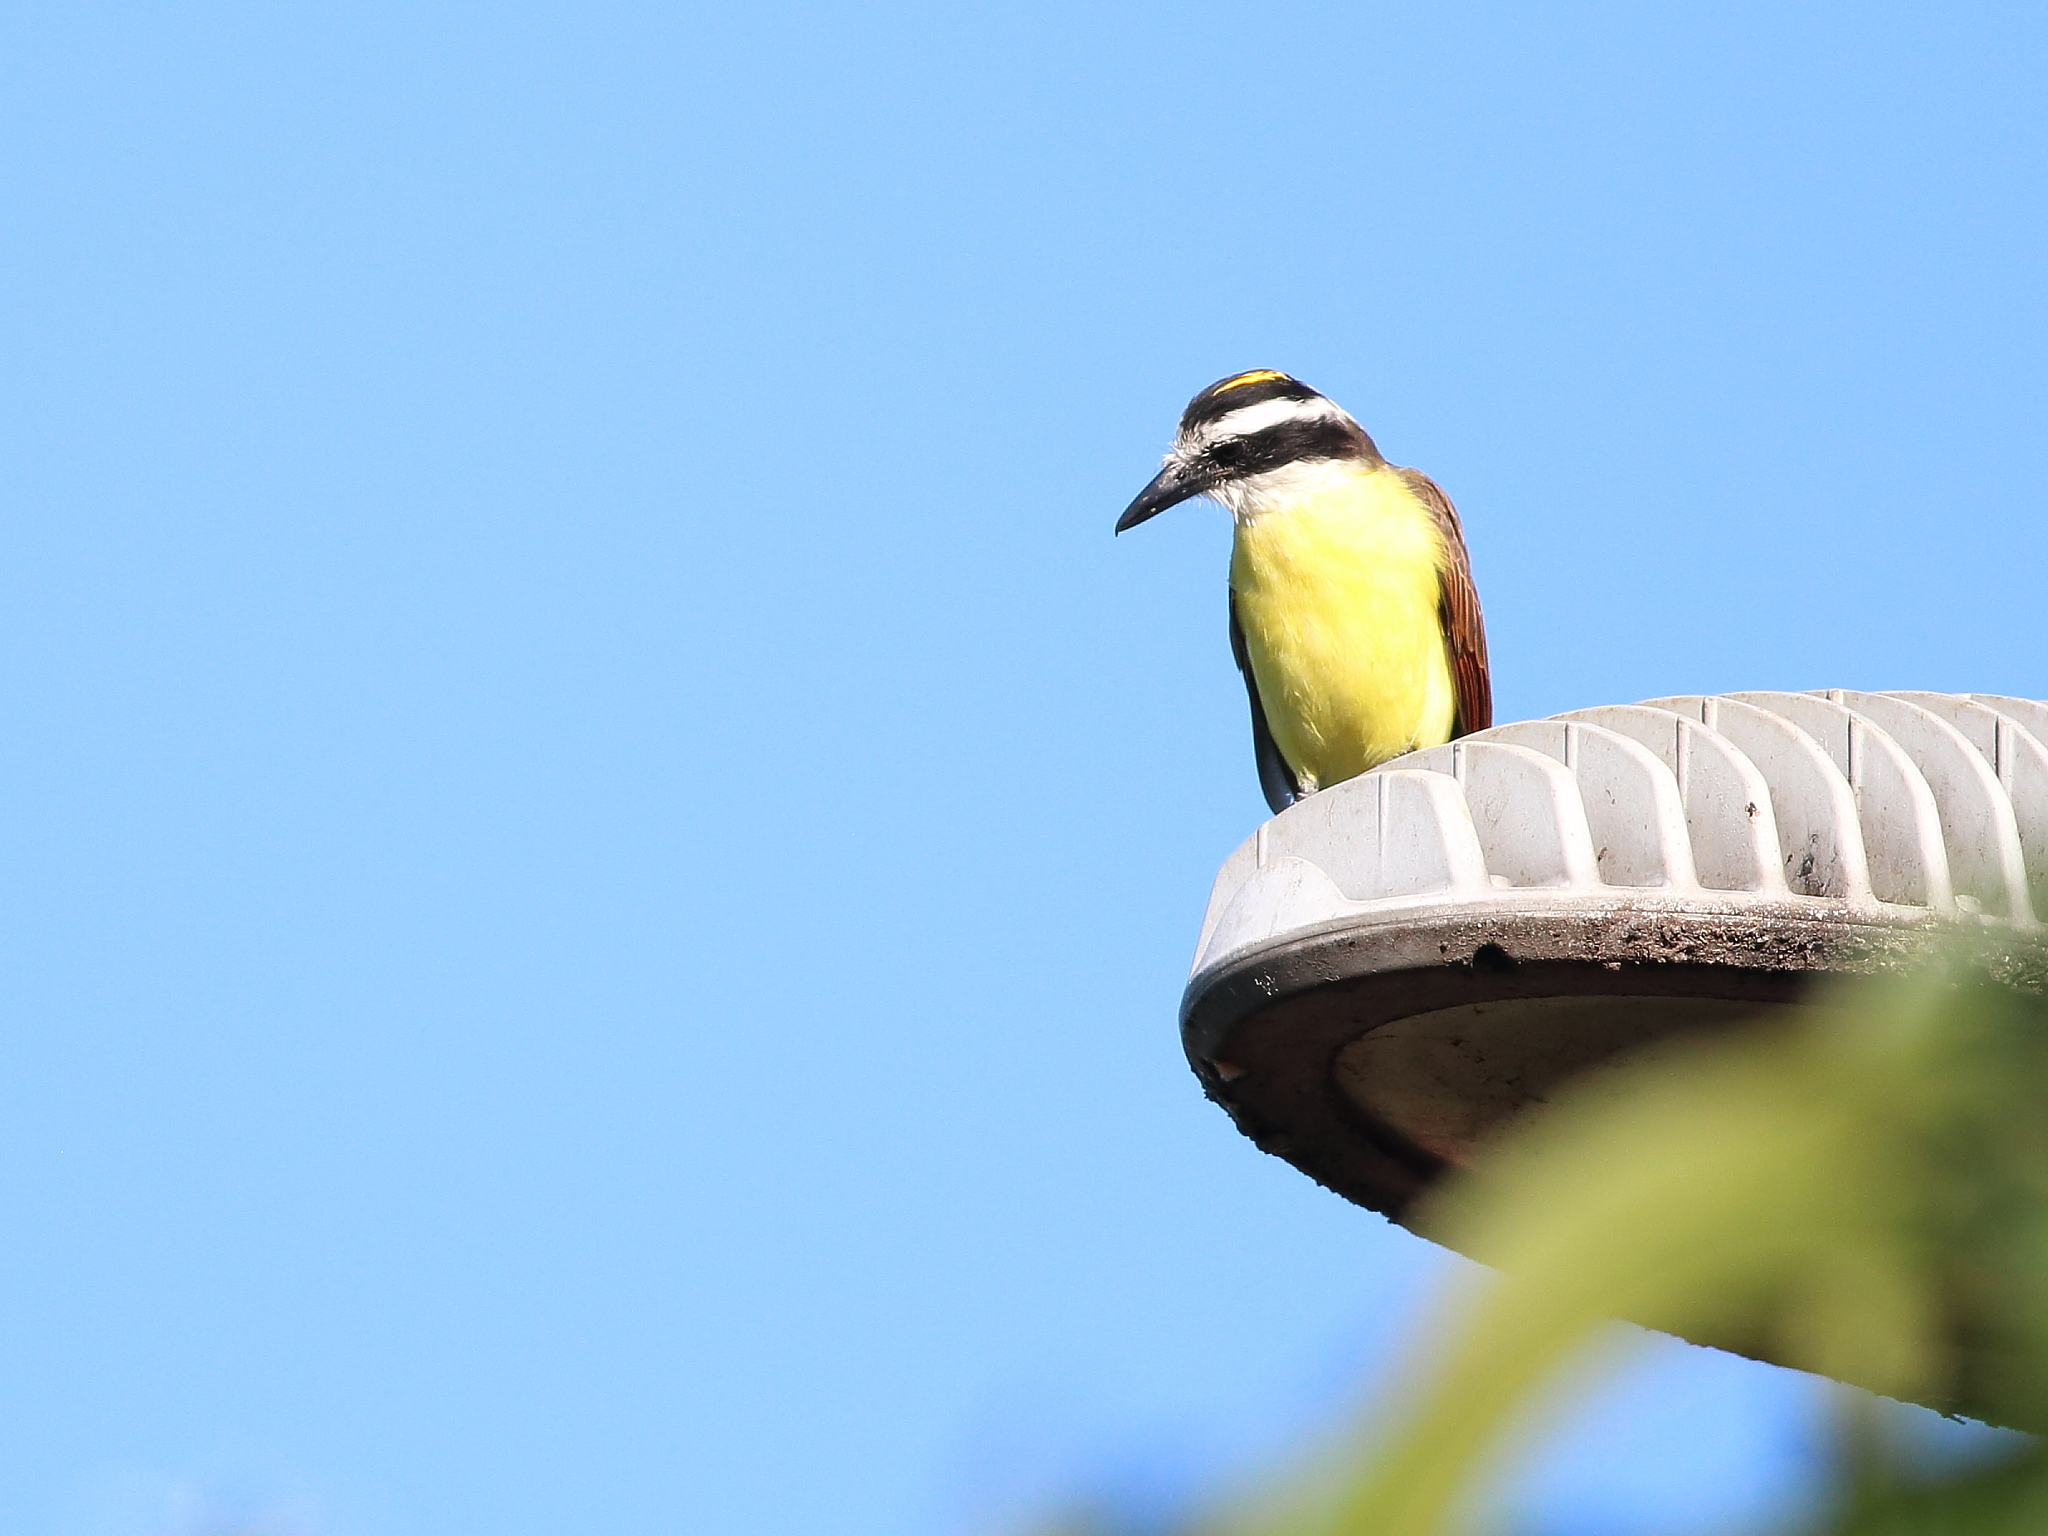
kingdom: Animalia
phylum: Chordata
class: Aves
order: Passeriformes
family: Tyrannidae
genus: Pitangus
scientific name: Pitangus sulphuratus
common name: Great kiskadee
